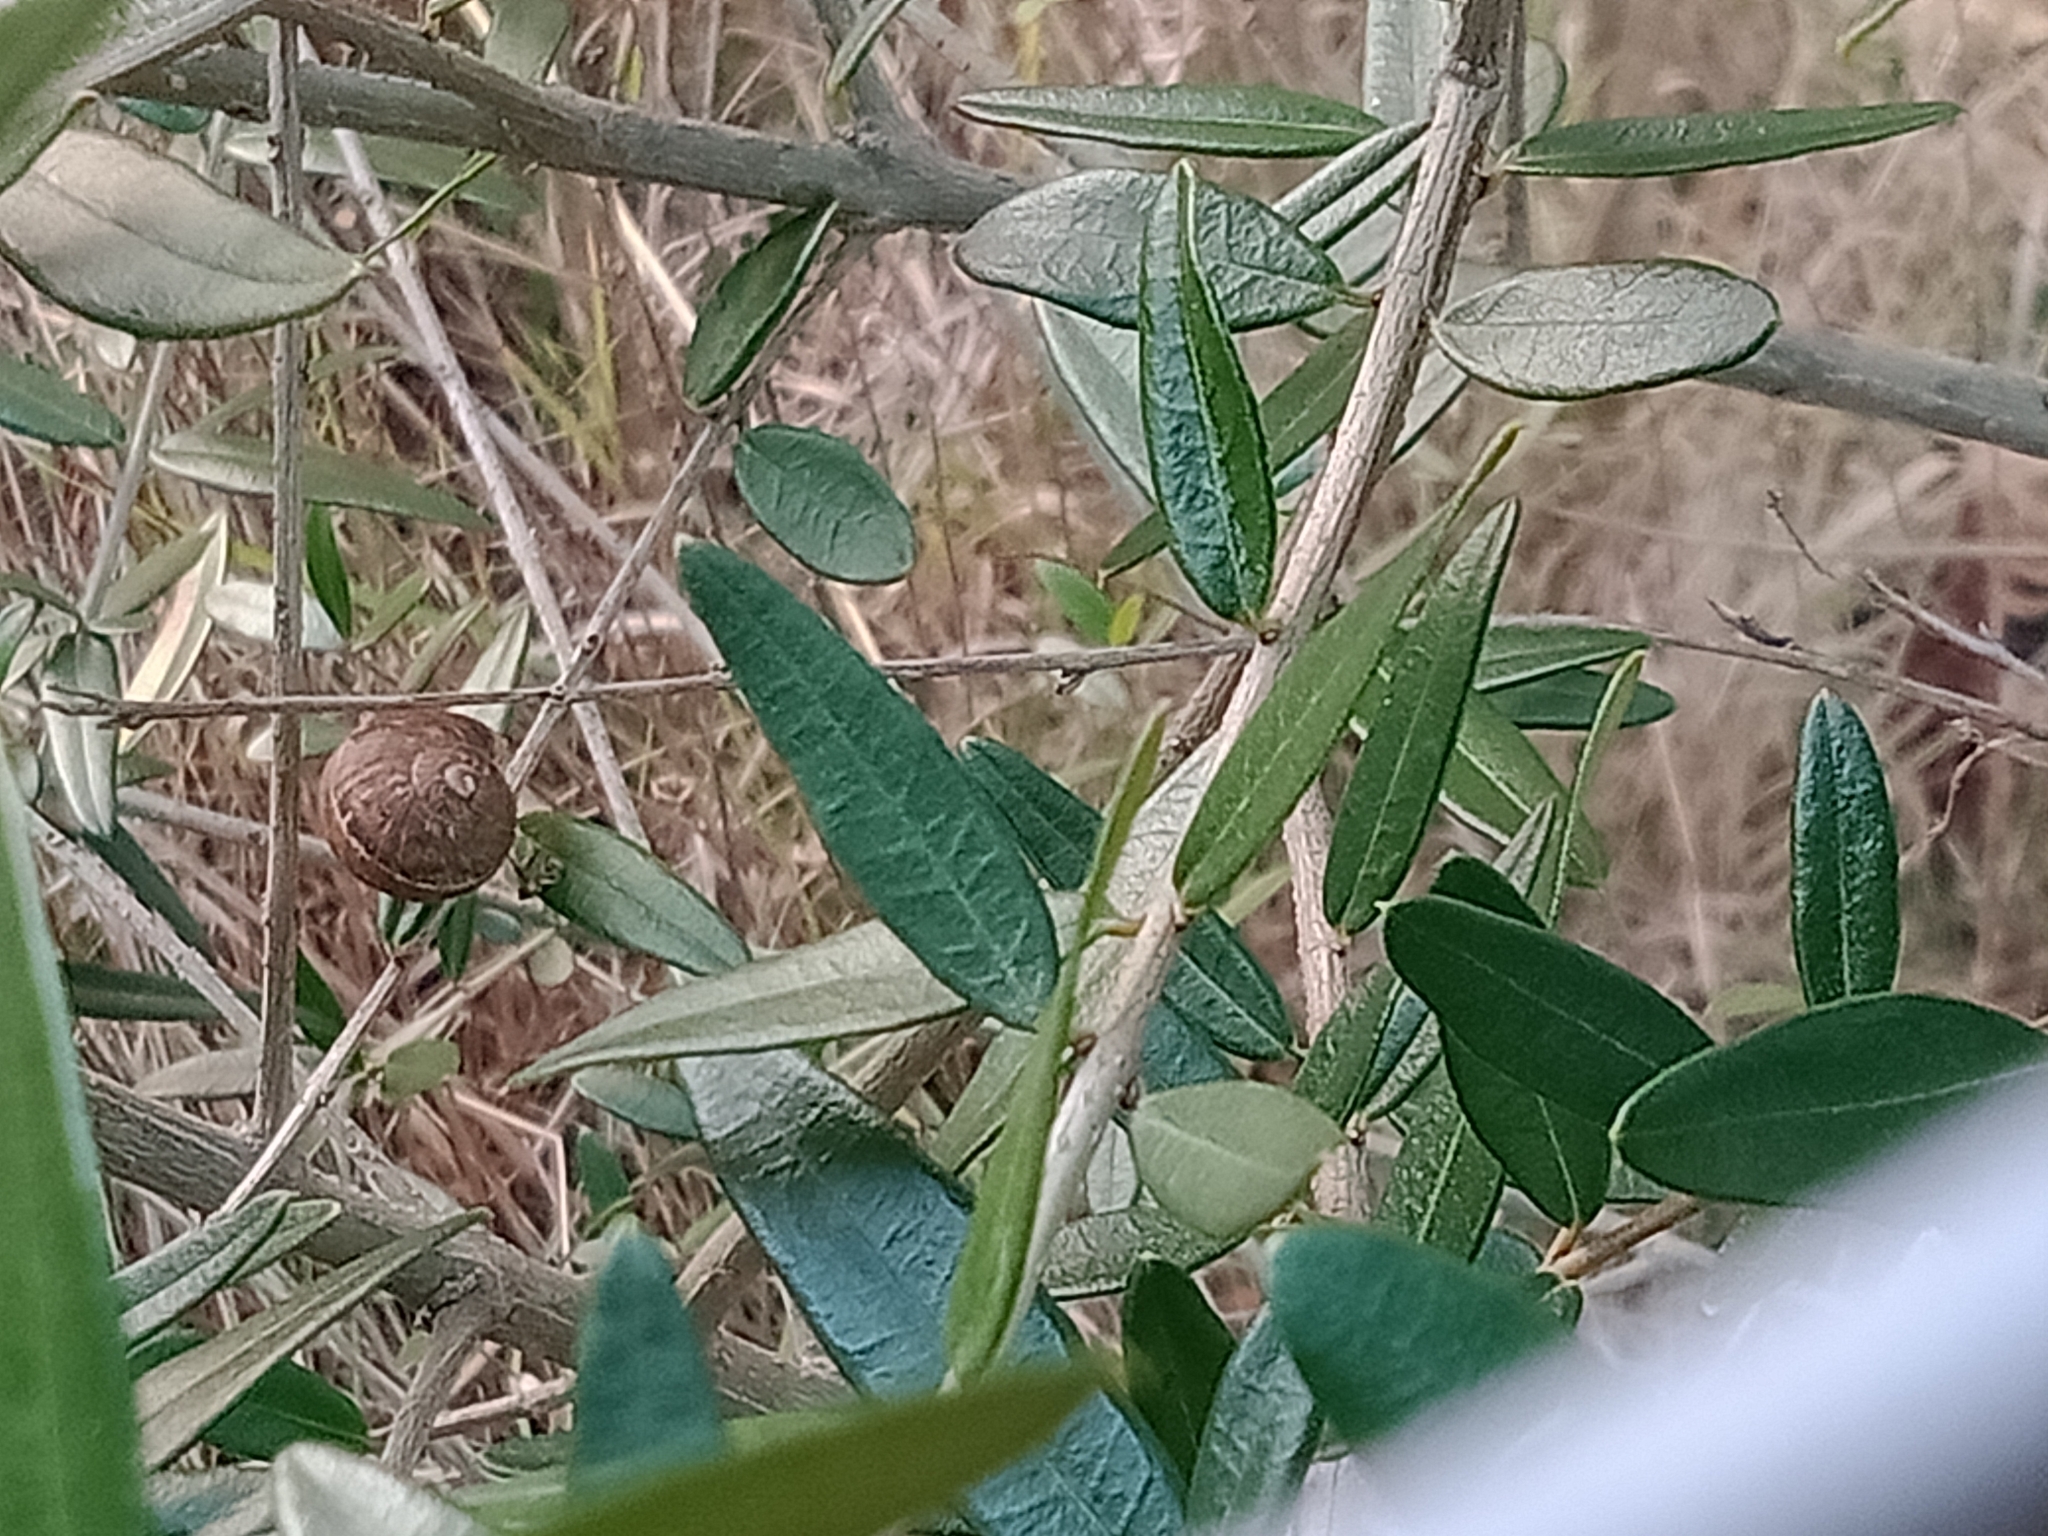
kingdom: Plantae
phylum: Tracheophyta
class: Magnoliopsida
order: Lamiales
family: Oleaceae
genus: Olea
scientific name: Olea europaea
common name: Olive
